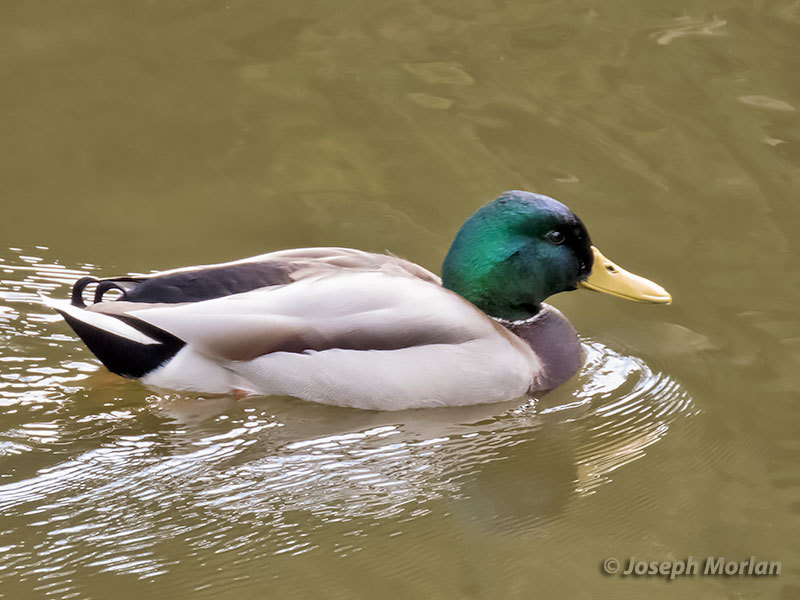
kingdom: Animalia
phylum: Chordata
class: Aves
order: Anseriformes
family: Anatidae
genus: Anas
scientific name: Anas platyrhynchos
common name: Mallard
